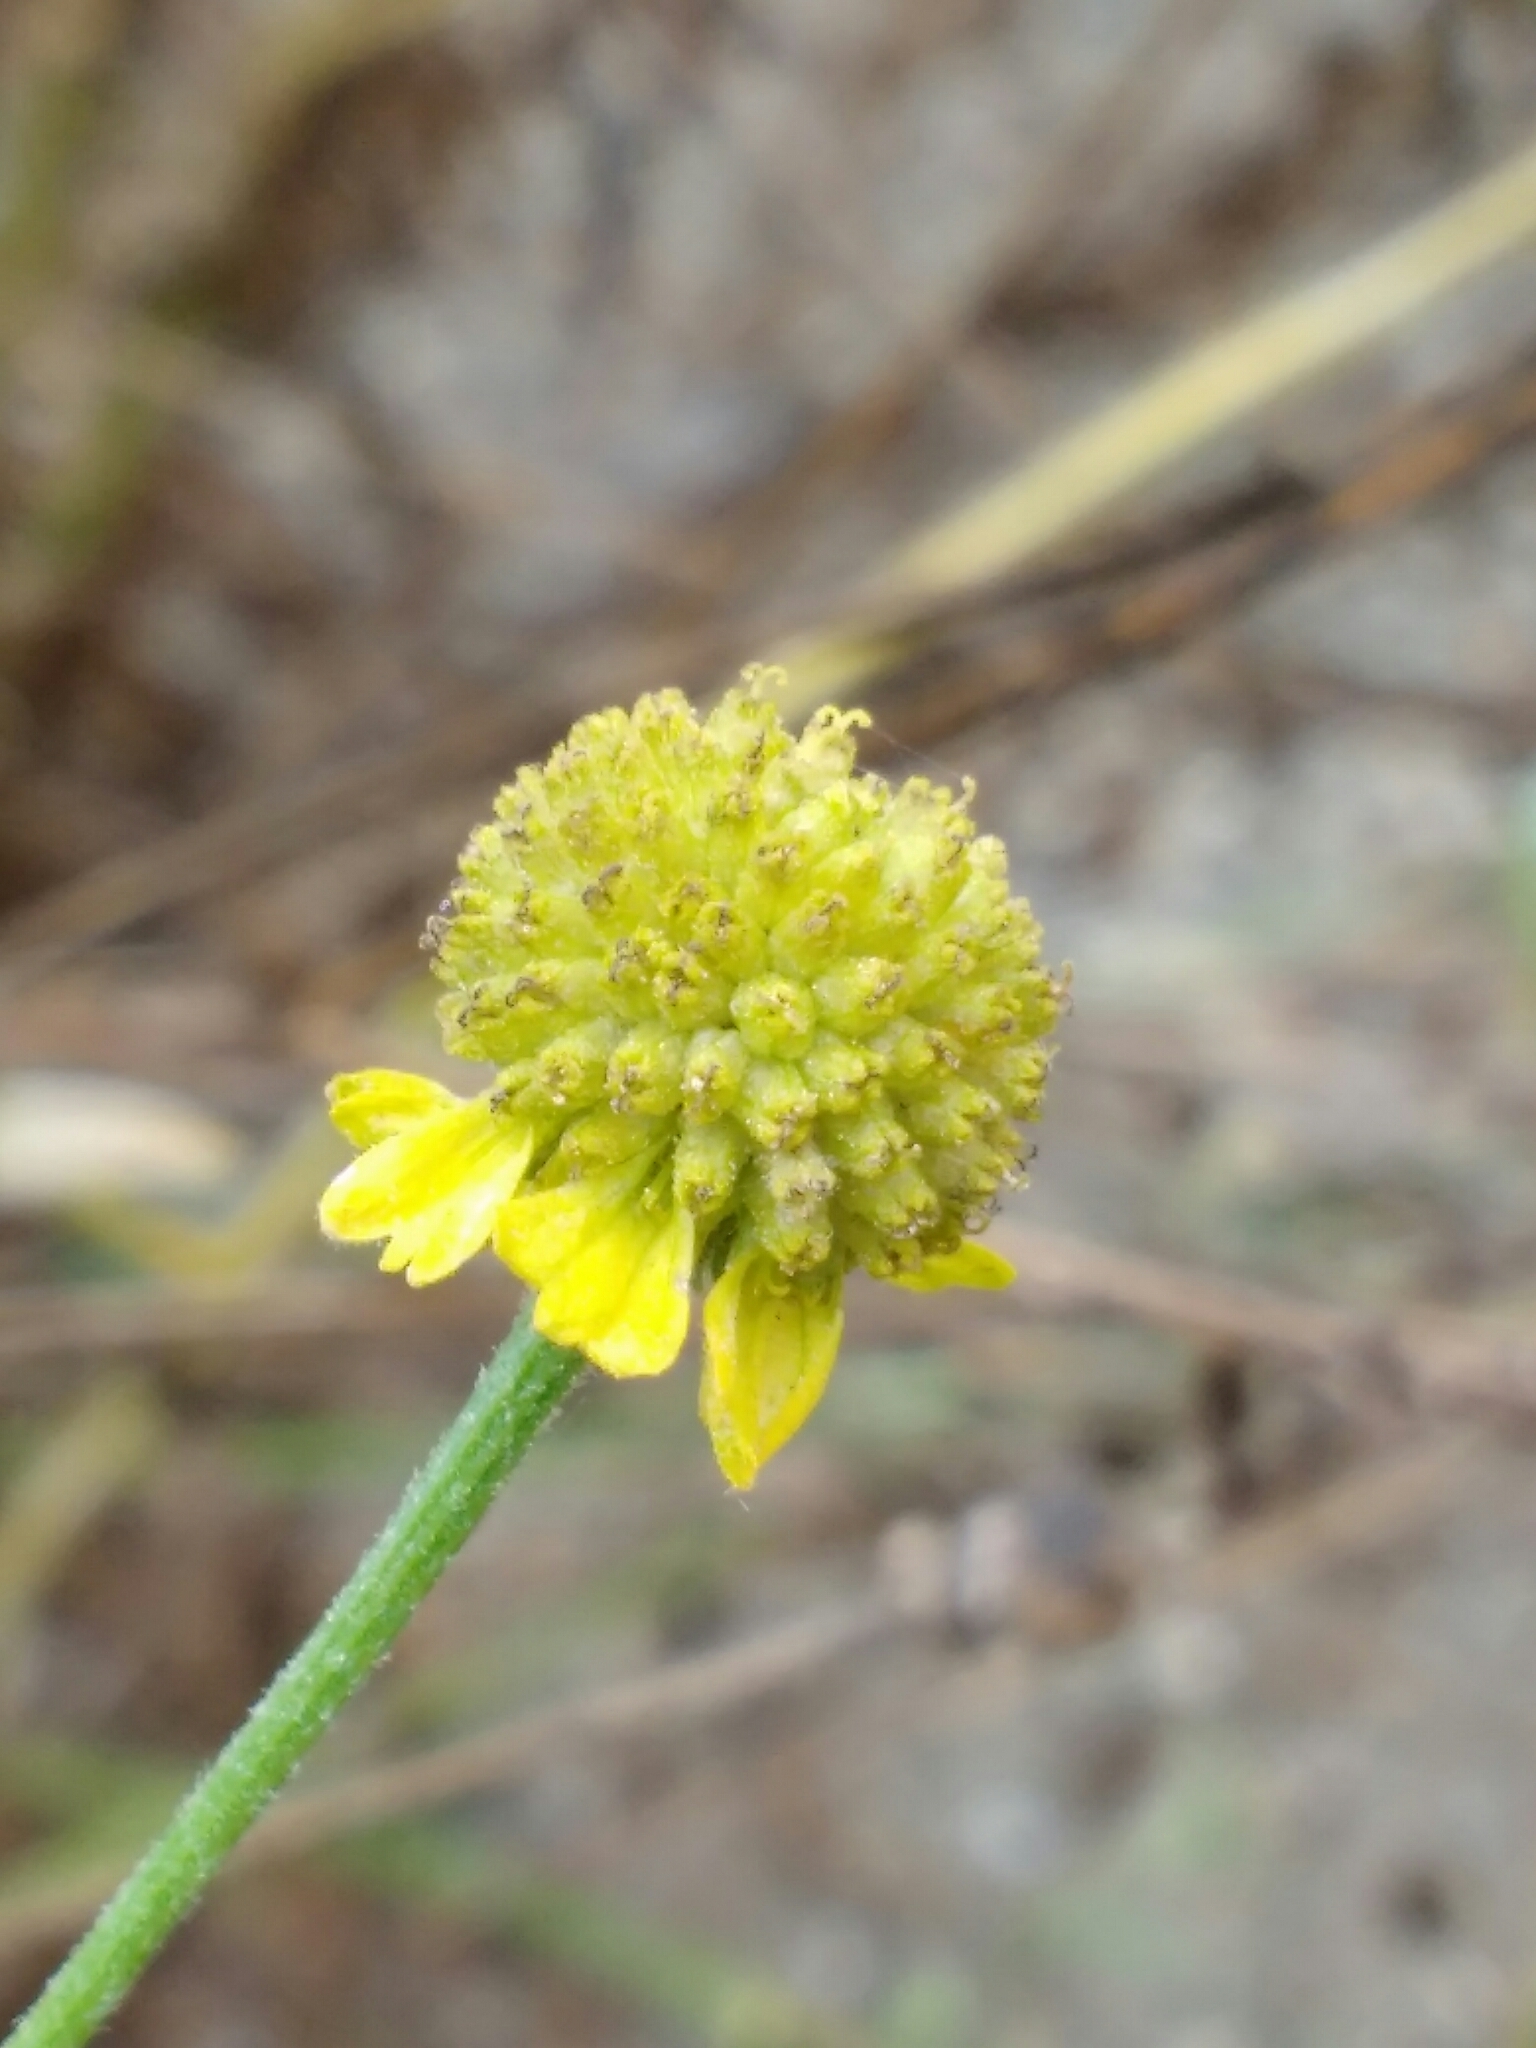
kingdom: Plantae
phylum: Tracheophyta
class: Magnoliopsida
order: Asterales
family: Asteraceae
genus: Helenium
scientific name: Helenium puberulum
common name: Sneezewort
